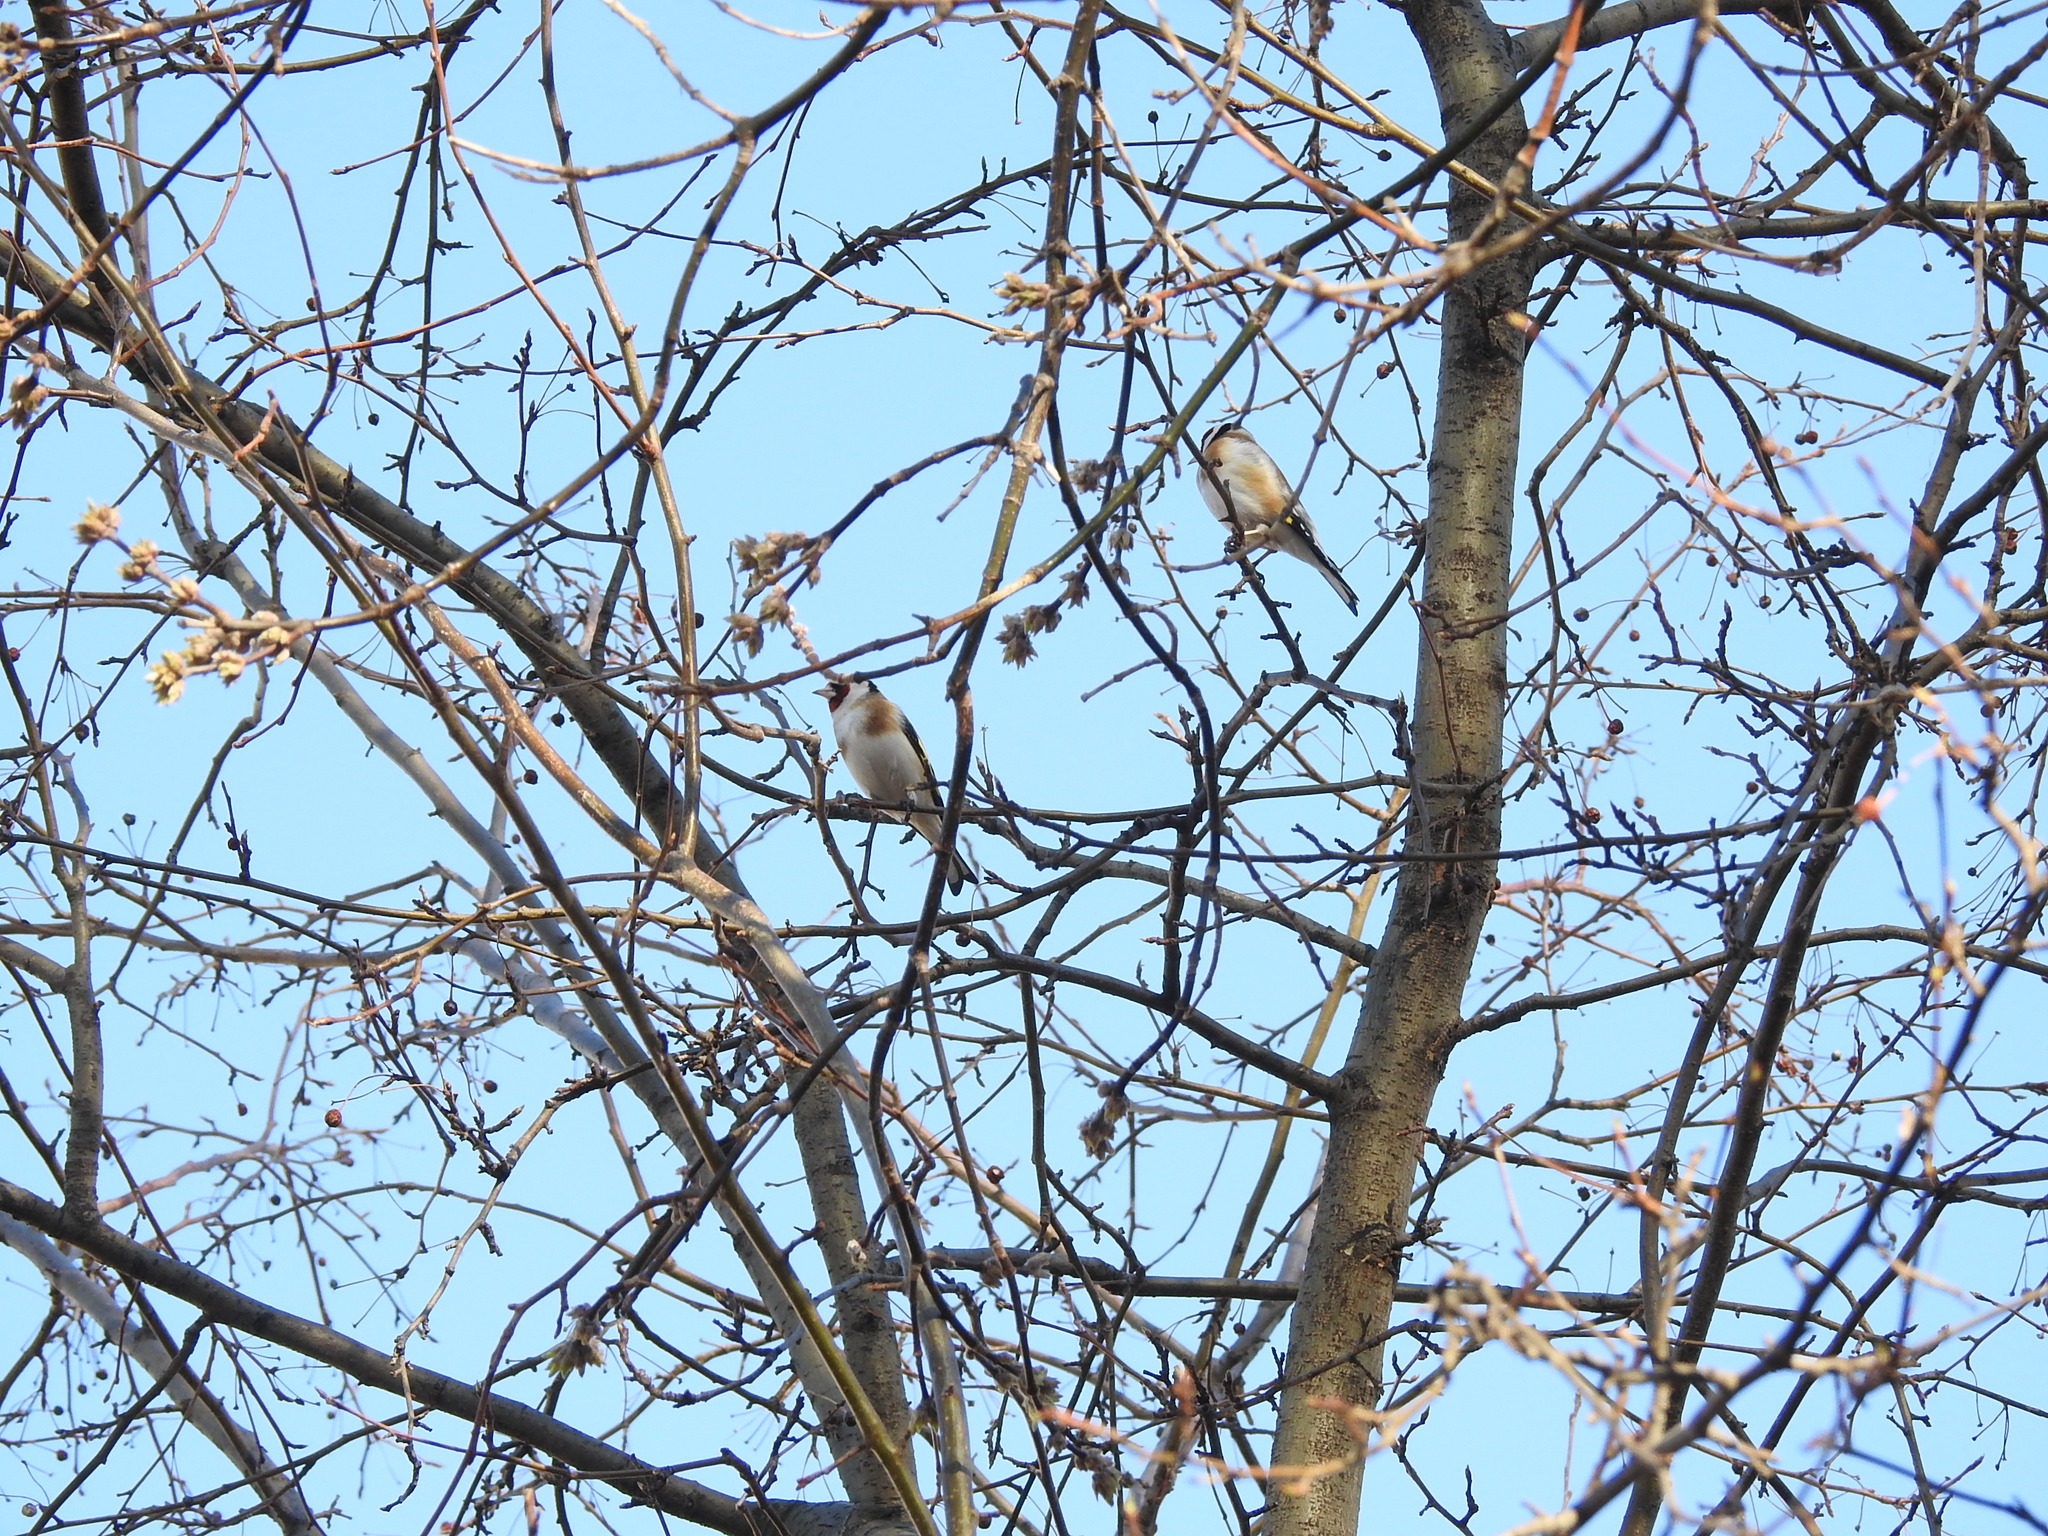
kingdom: Animalia
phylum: Chordata
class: Aves
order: Passeriformes
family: Fringillidae
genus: Carduelis
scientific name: Carduelis carduelis
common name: European goldfinch
